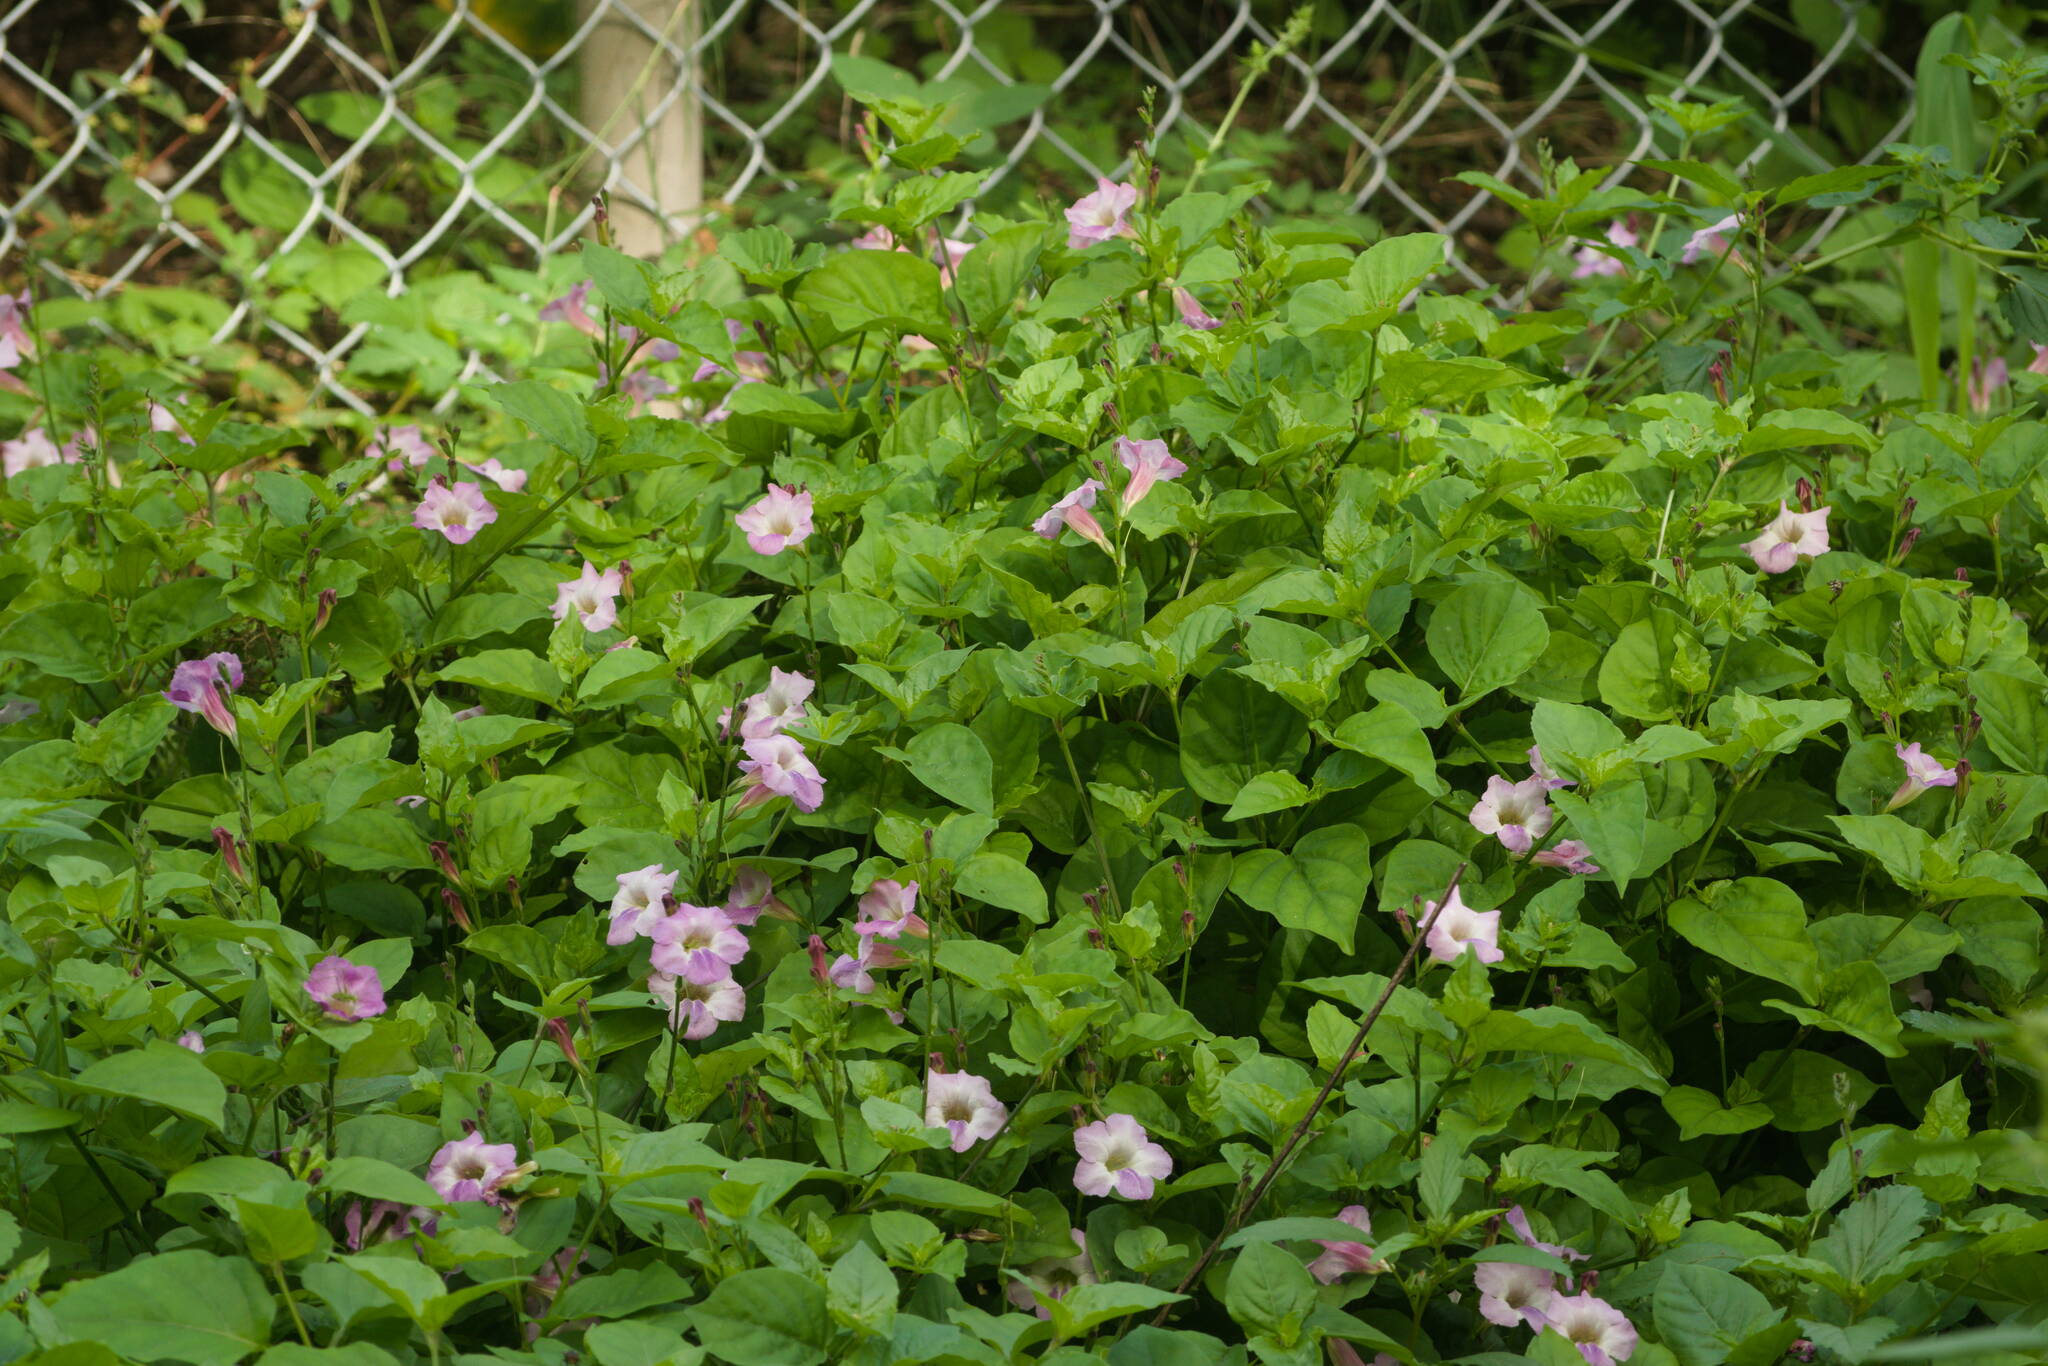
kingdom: Plantae
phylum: Tracheophyta
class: Magnoliopsida
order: Lamiales
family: Acanthaceae
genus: Asystasia
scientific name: Asystasia gangetica
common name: Chinese violet
